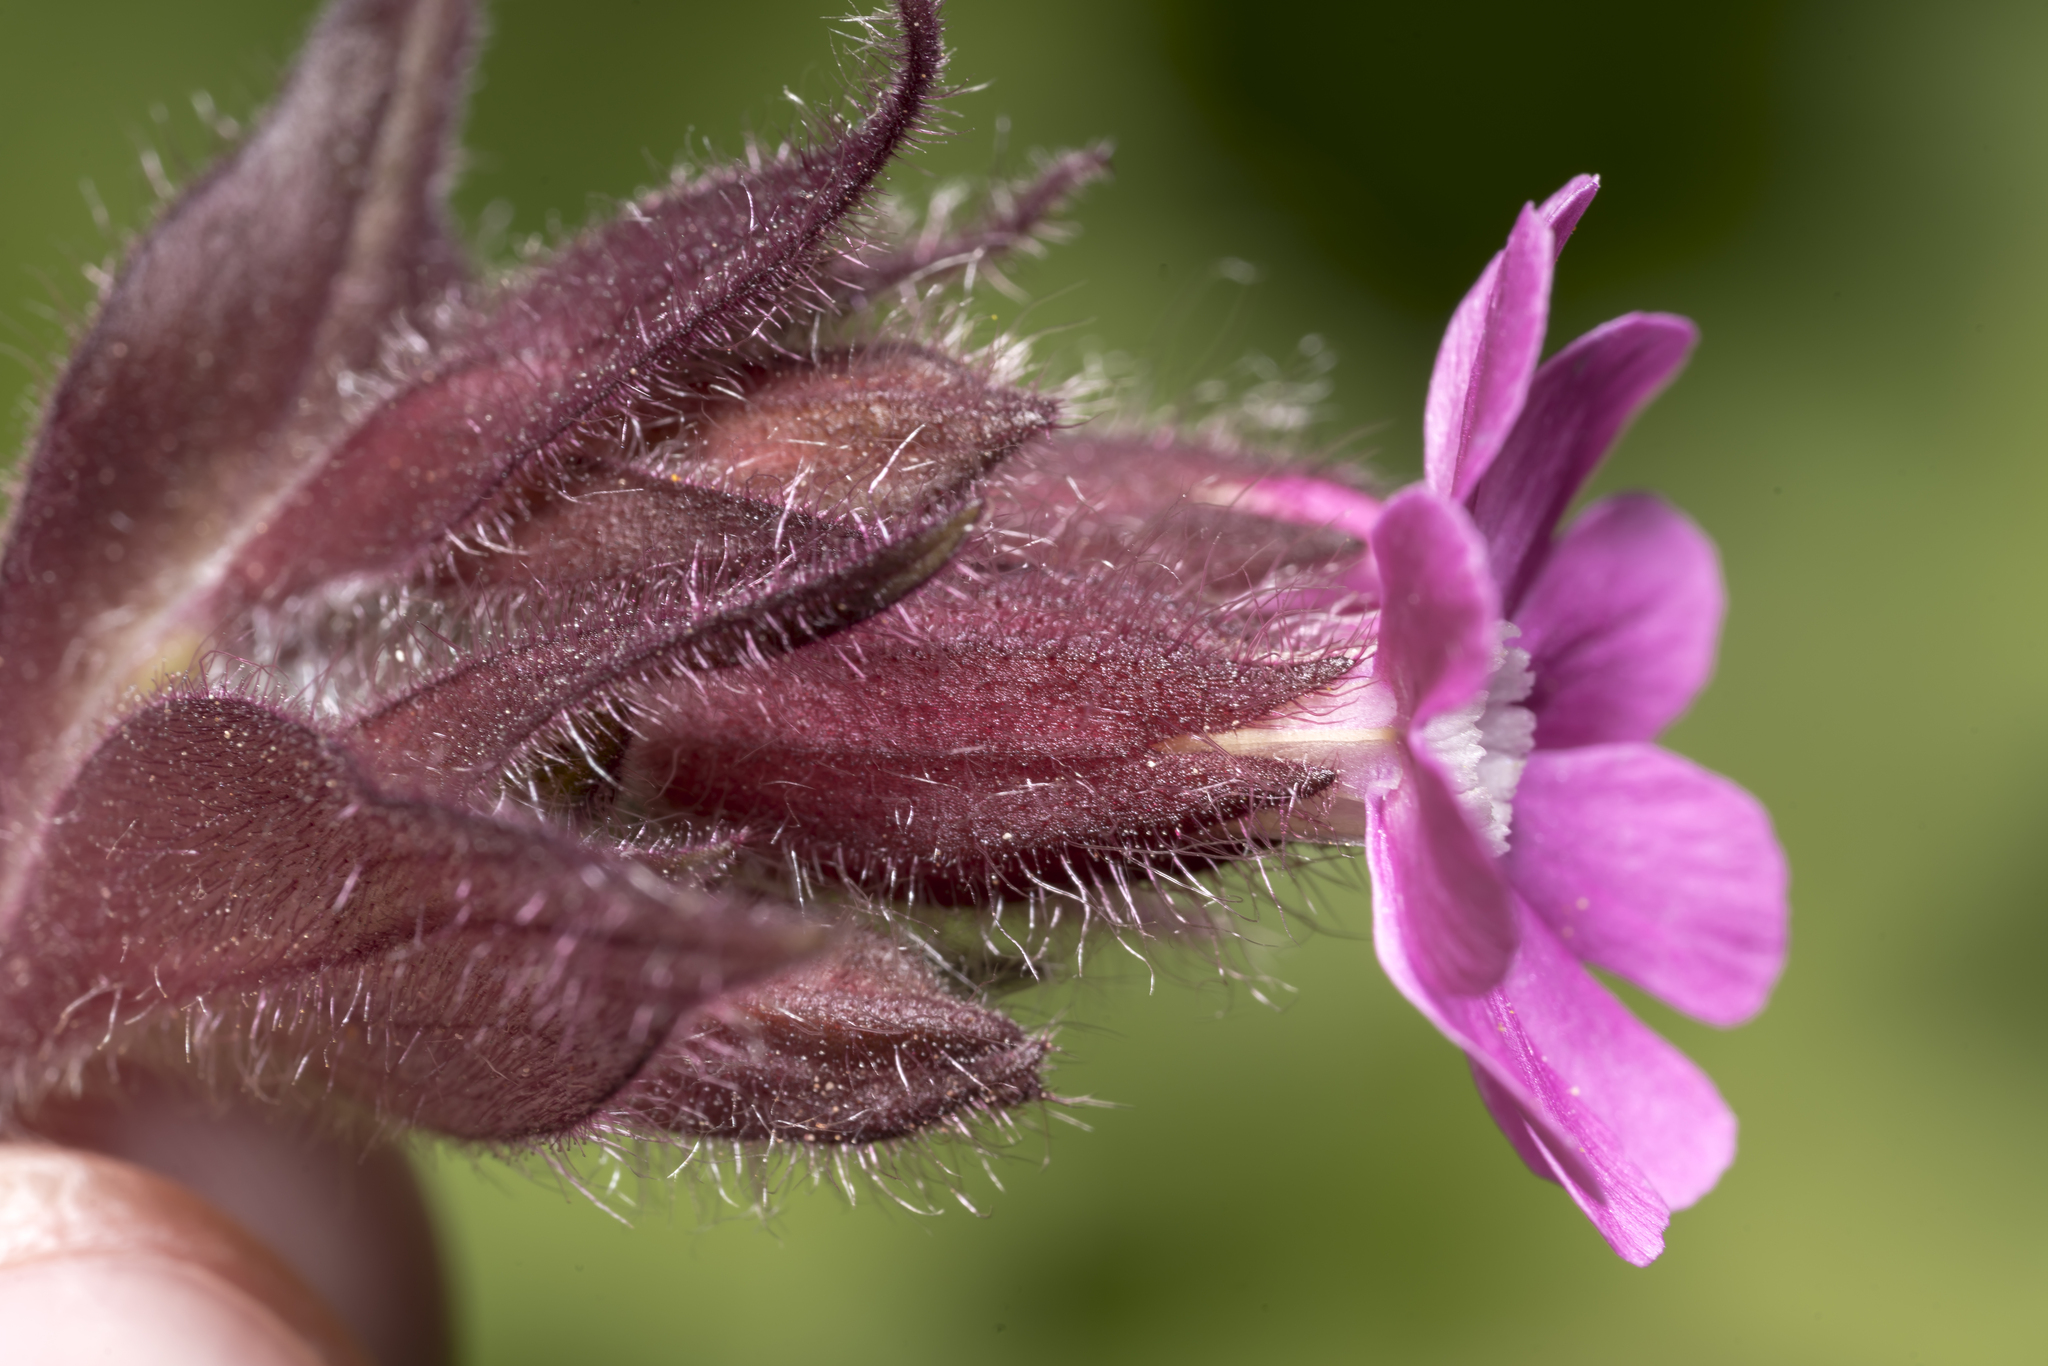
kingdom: Plantae
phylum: Tracheophyta
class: Magnoliopsida
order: Caryophyllales
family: Caryophyllaceae
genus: Silene
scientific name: Silene dioica
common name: Red campion
